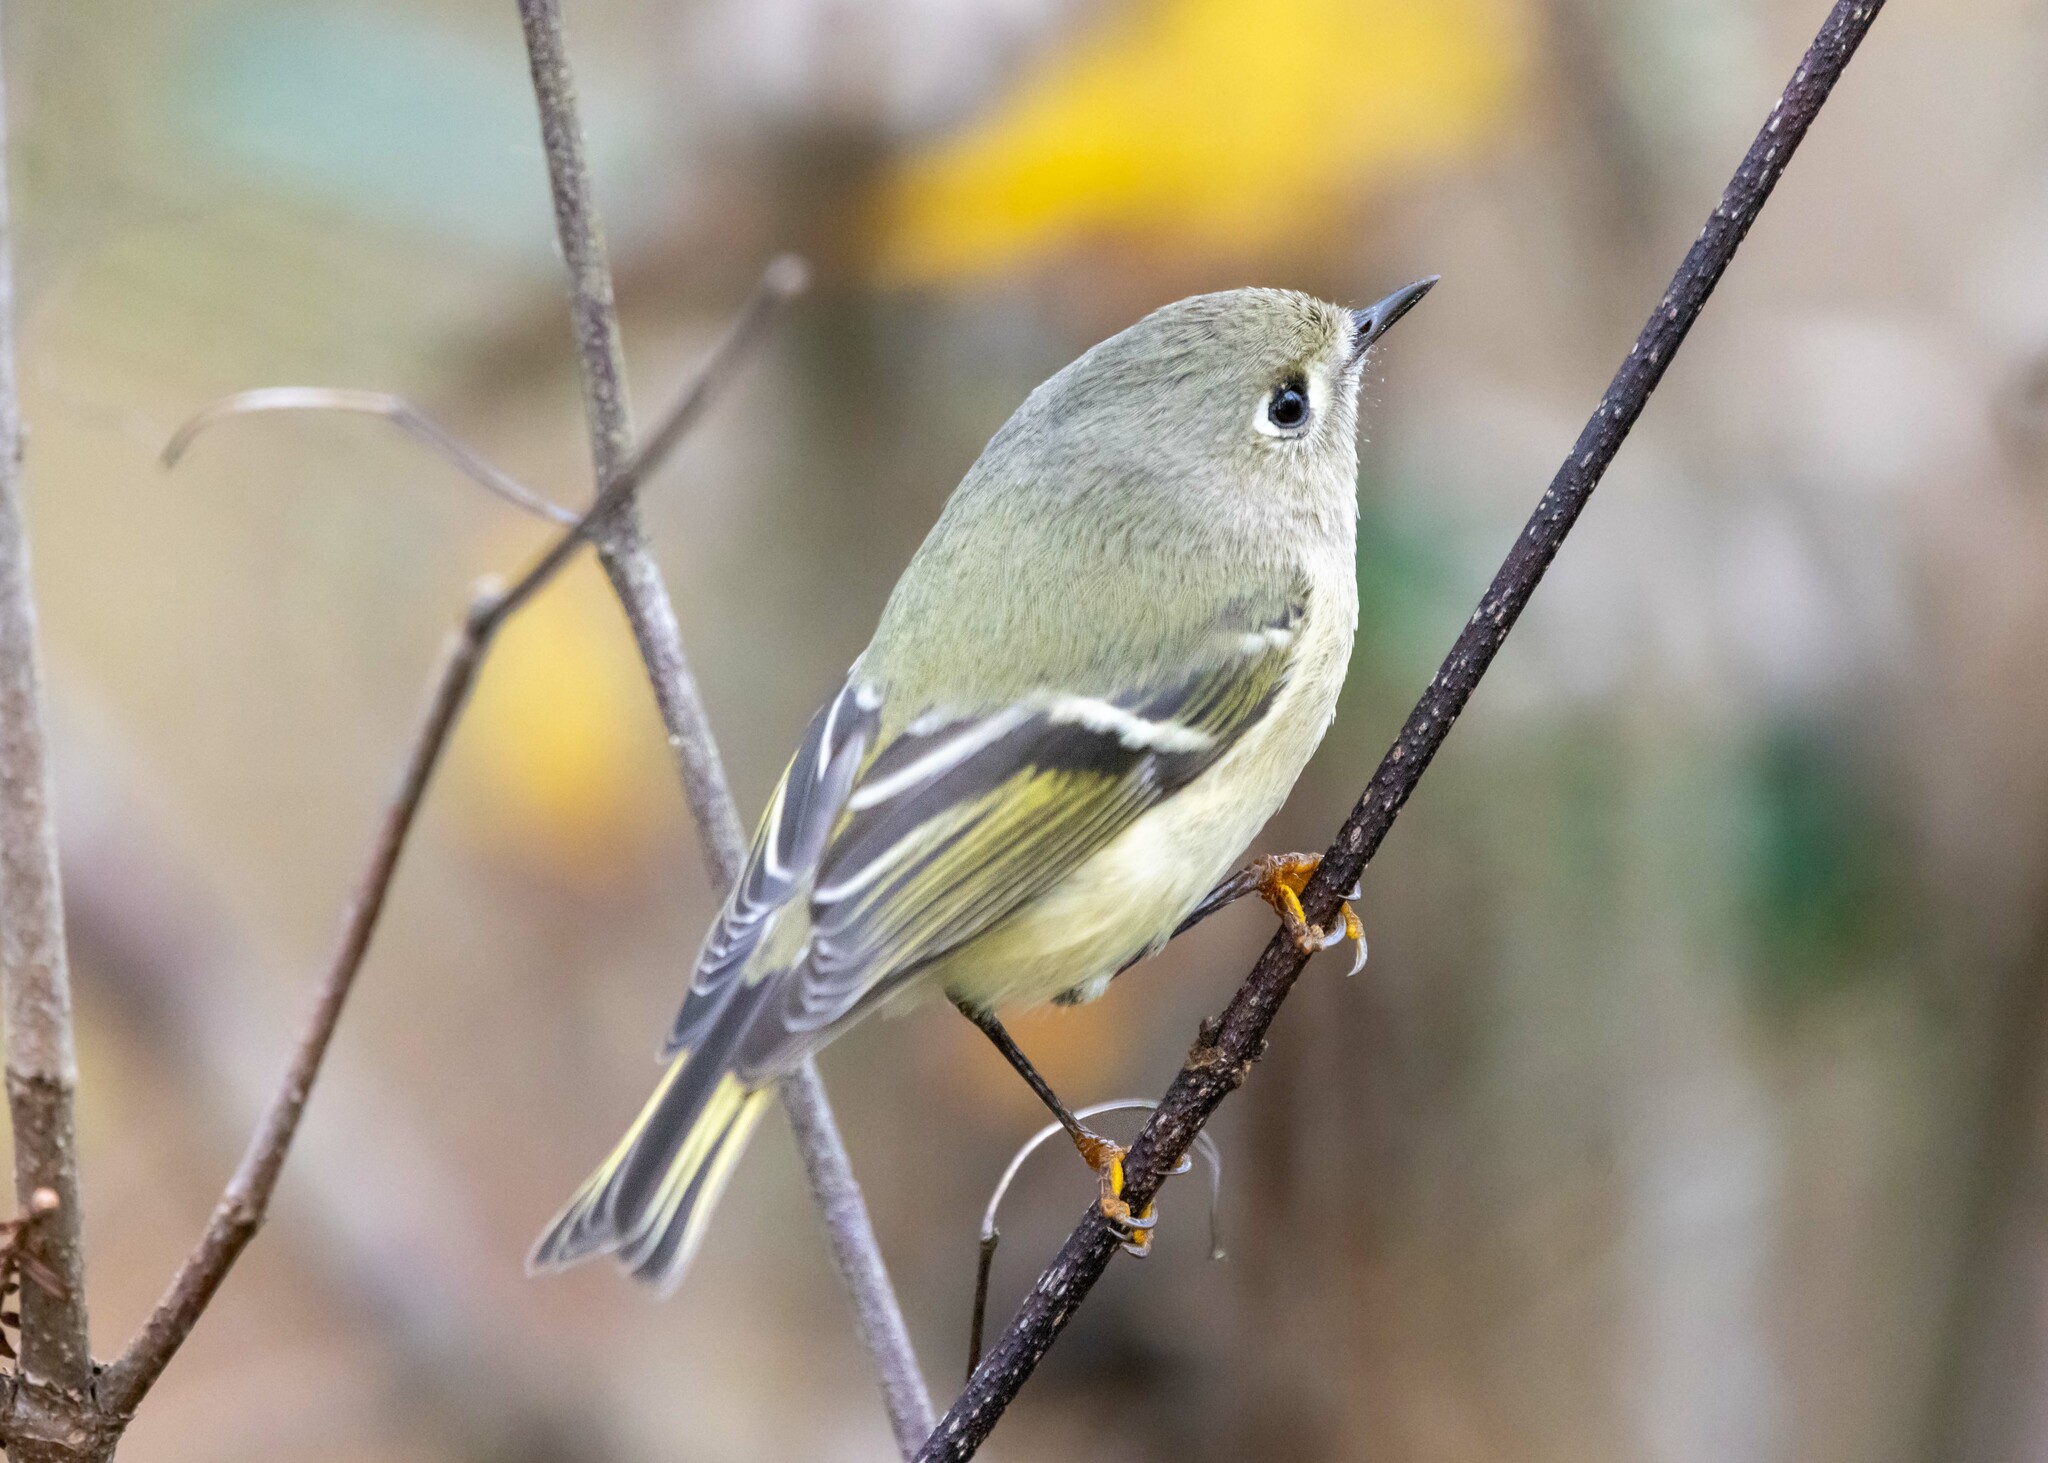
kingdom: Animalia
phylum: Chordata
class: Aves
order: Passeriformes
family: Regulidae
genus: Regulus
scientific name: Regulus calendula
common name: Ruby-crowned kinglet
